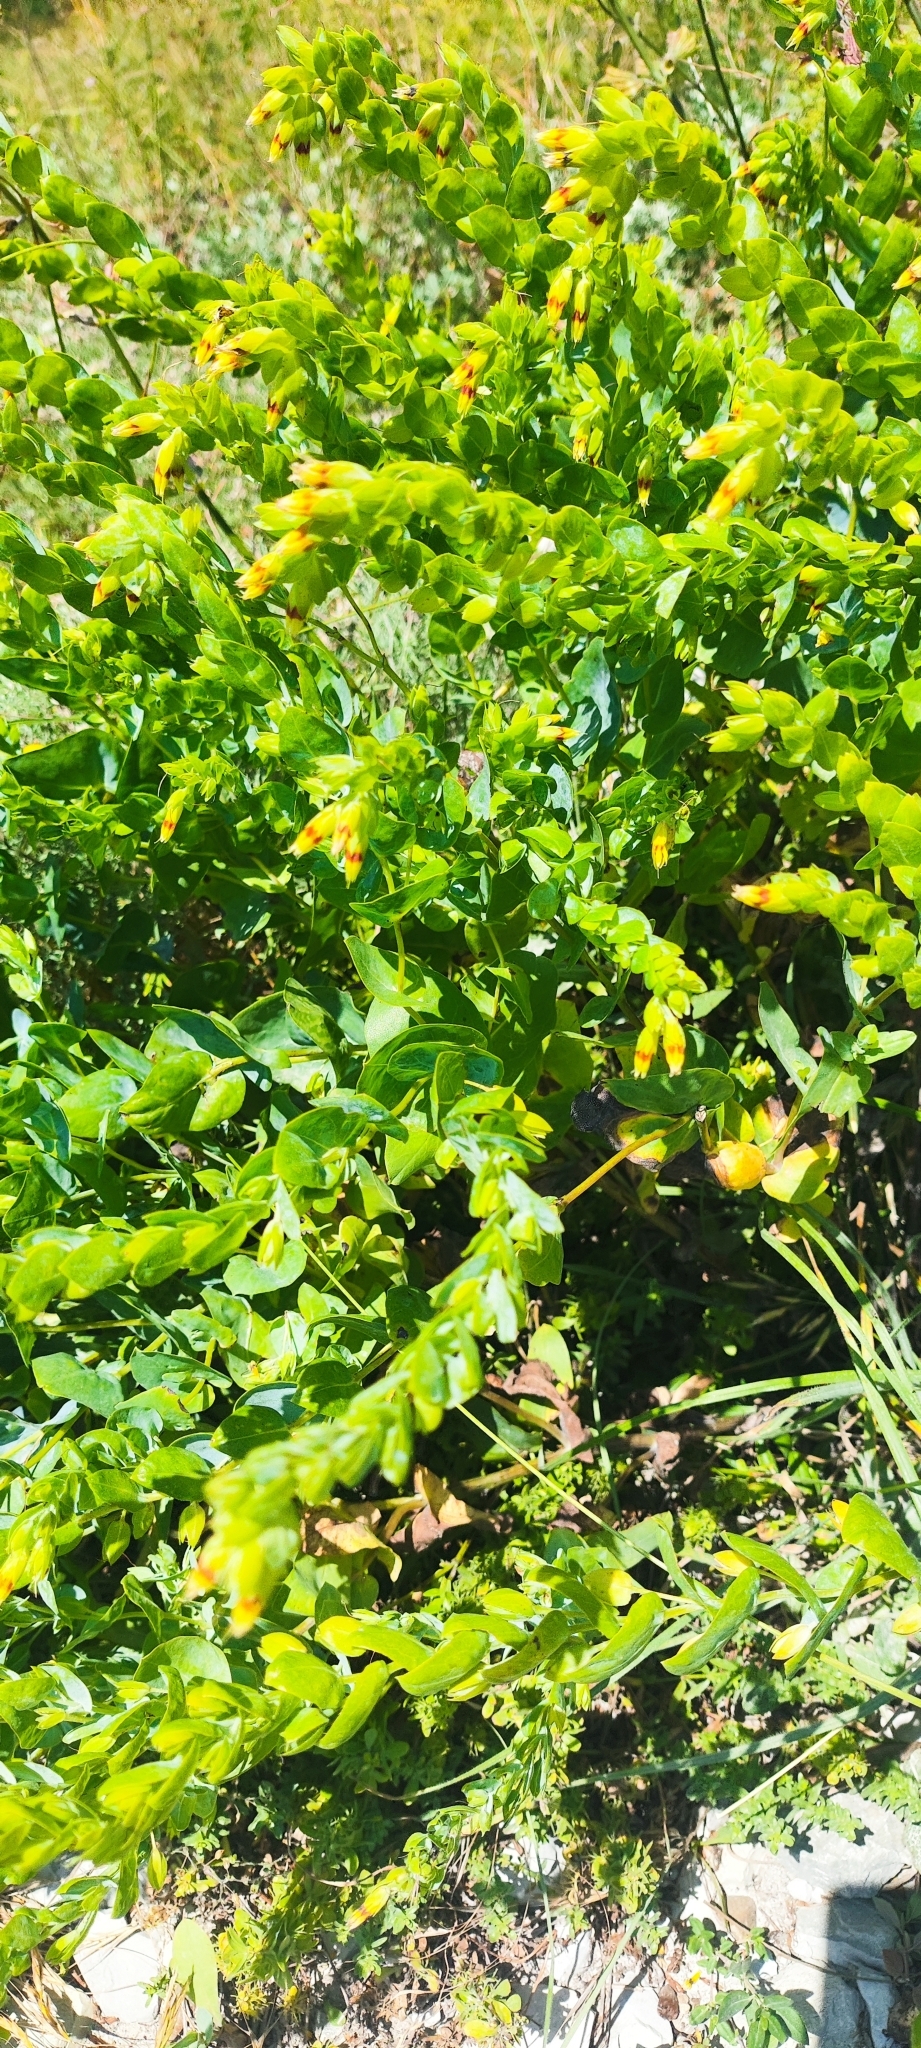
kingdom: Plantae
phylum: Tracheophyta
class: Magnoliopsida
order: Boraginales
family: Boraginaceae
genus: Cerinthe
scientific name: Cerinthe minor
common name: Lesser honeywort
